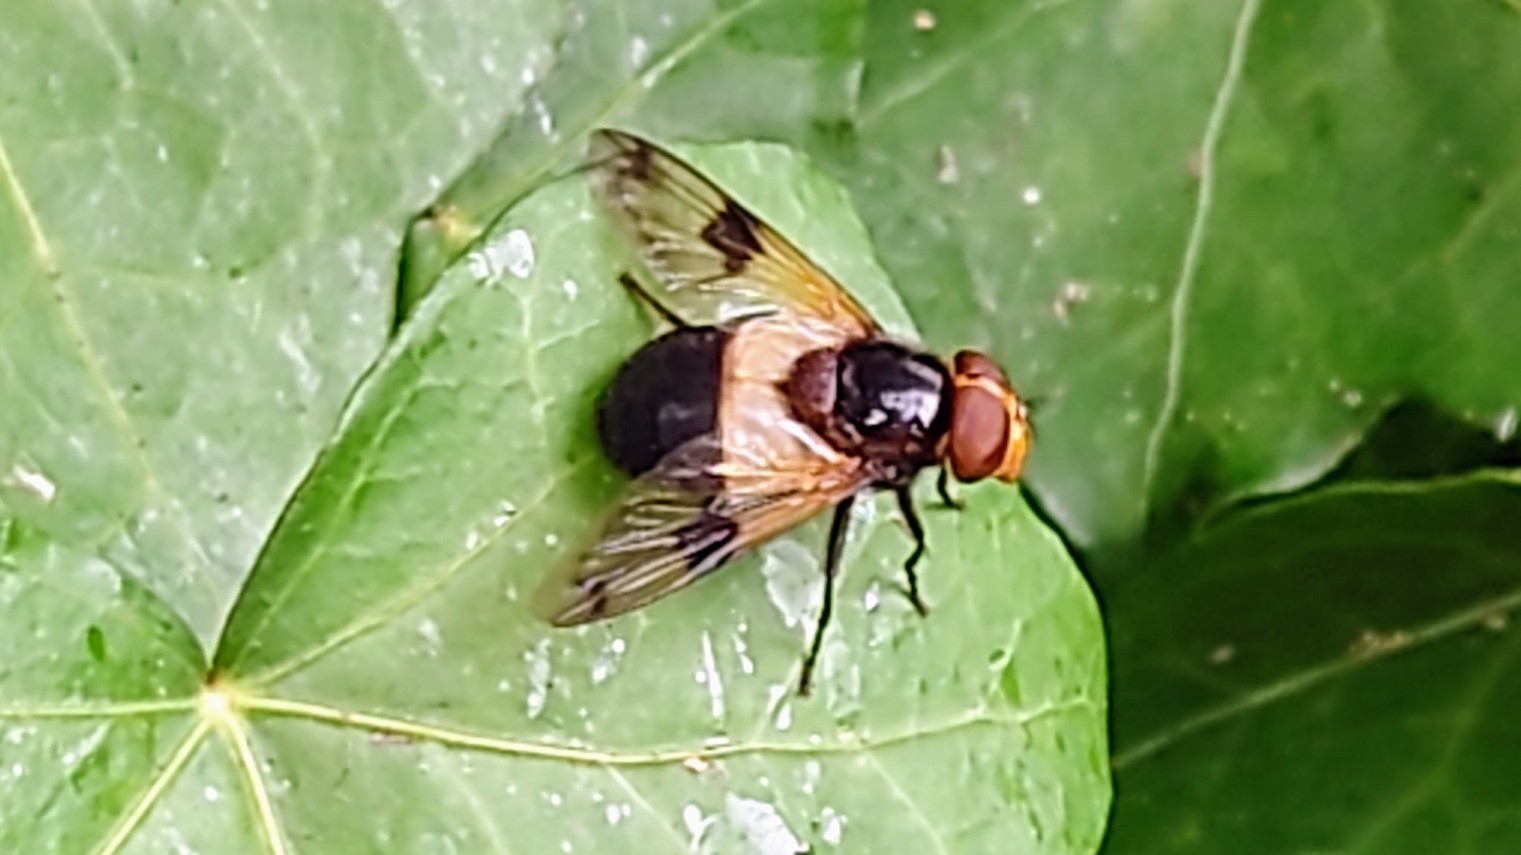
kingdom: Animalia
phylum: Arthropoda
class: Insecta
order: Diptera
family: Syrphidae
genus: Volucella
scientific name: Volucella pellucens
